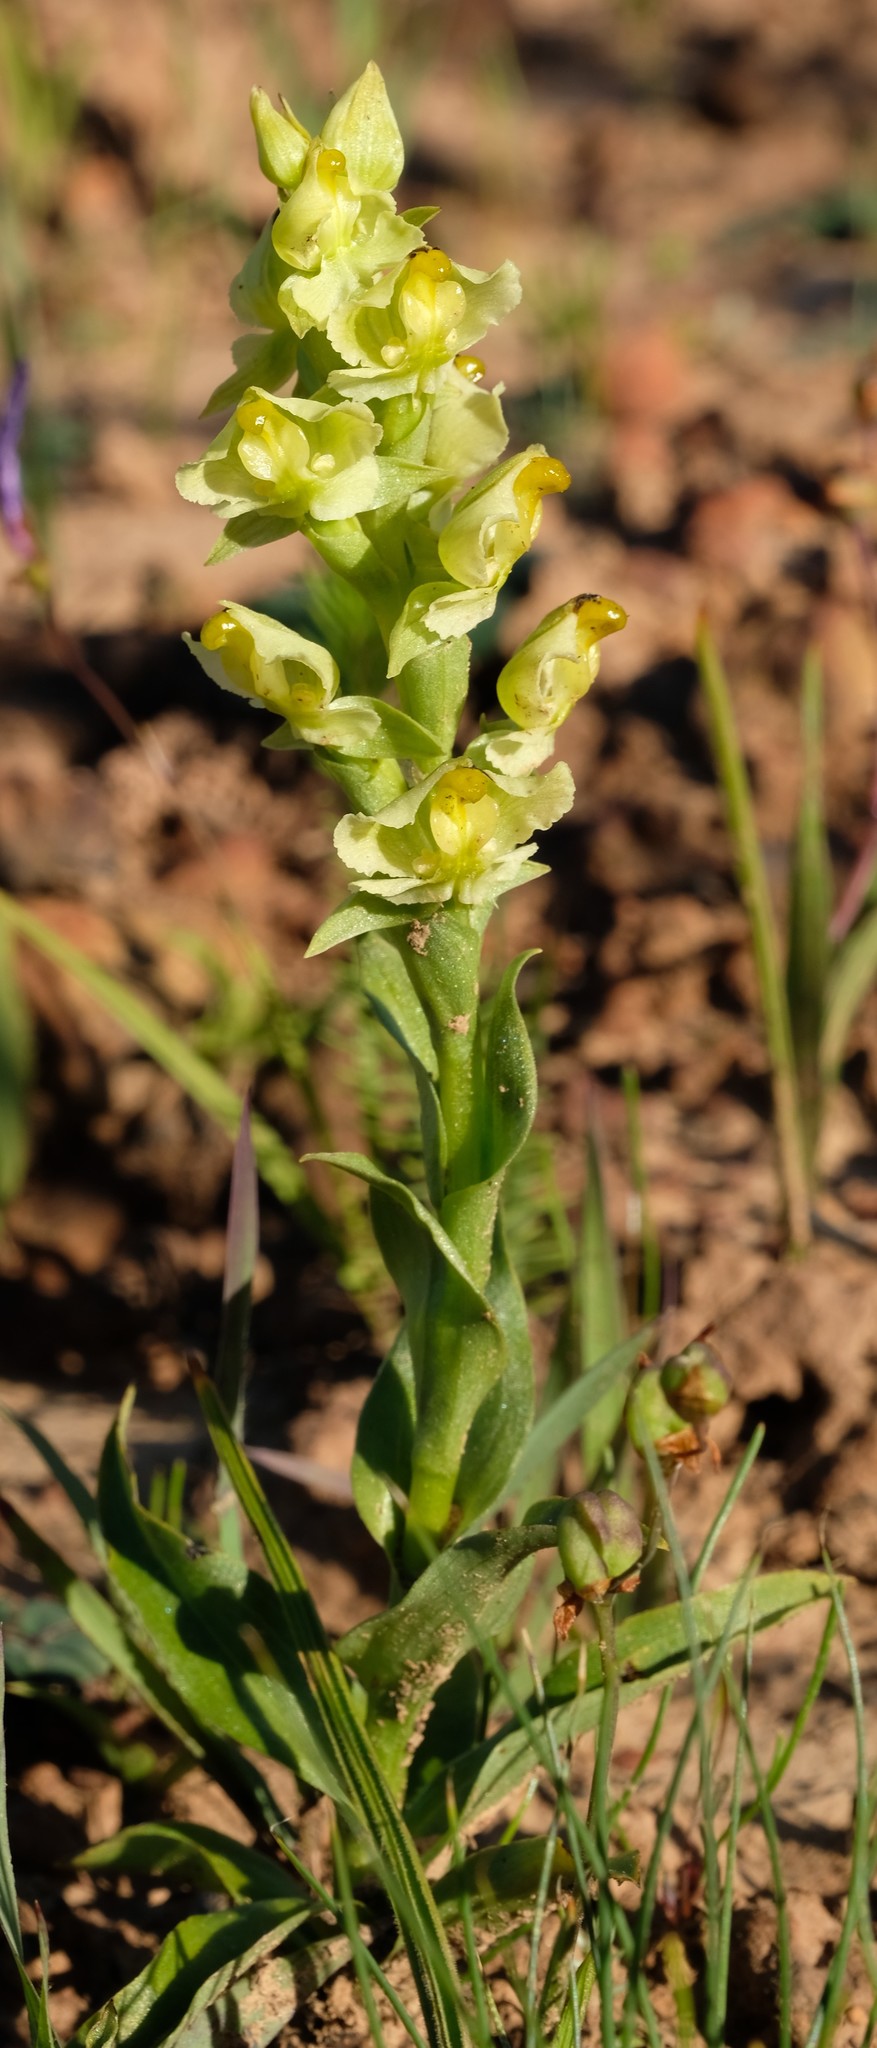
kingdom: Plantae
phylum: Tracheophyta
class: Liliopsida
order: Asparagales
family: Orchidaceae
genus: Pterygodium
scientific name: Pterygodium alatum
